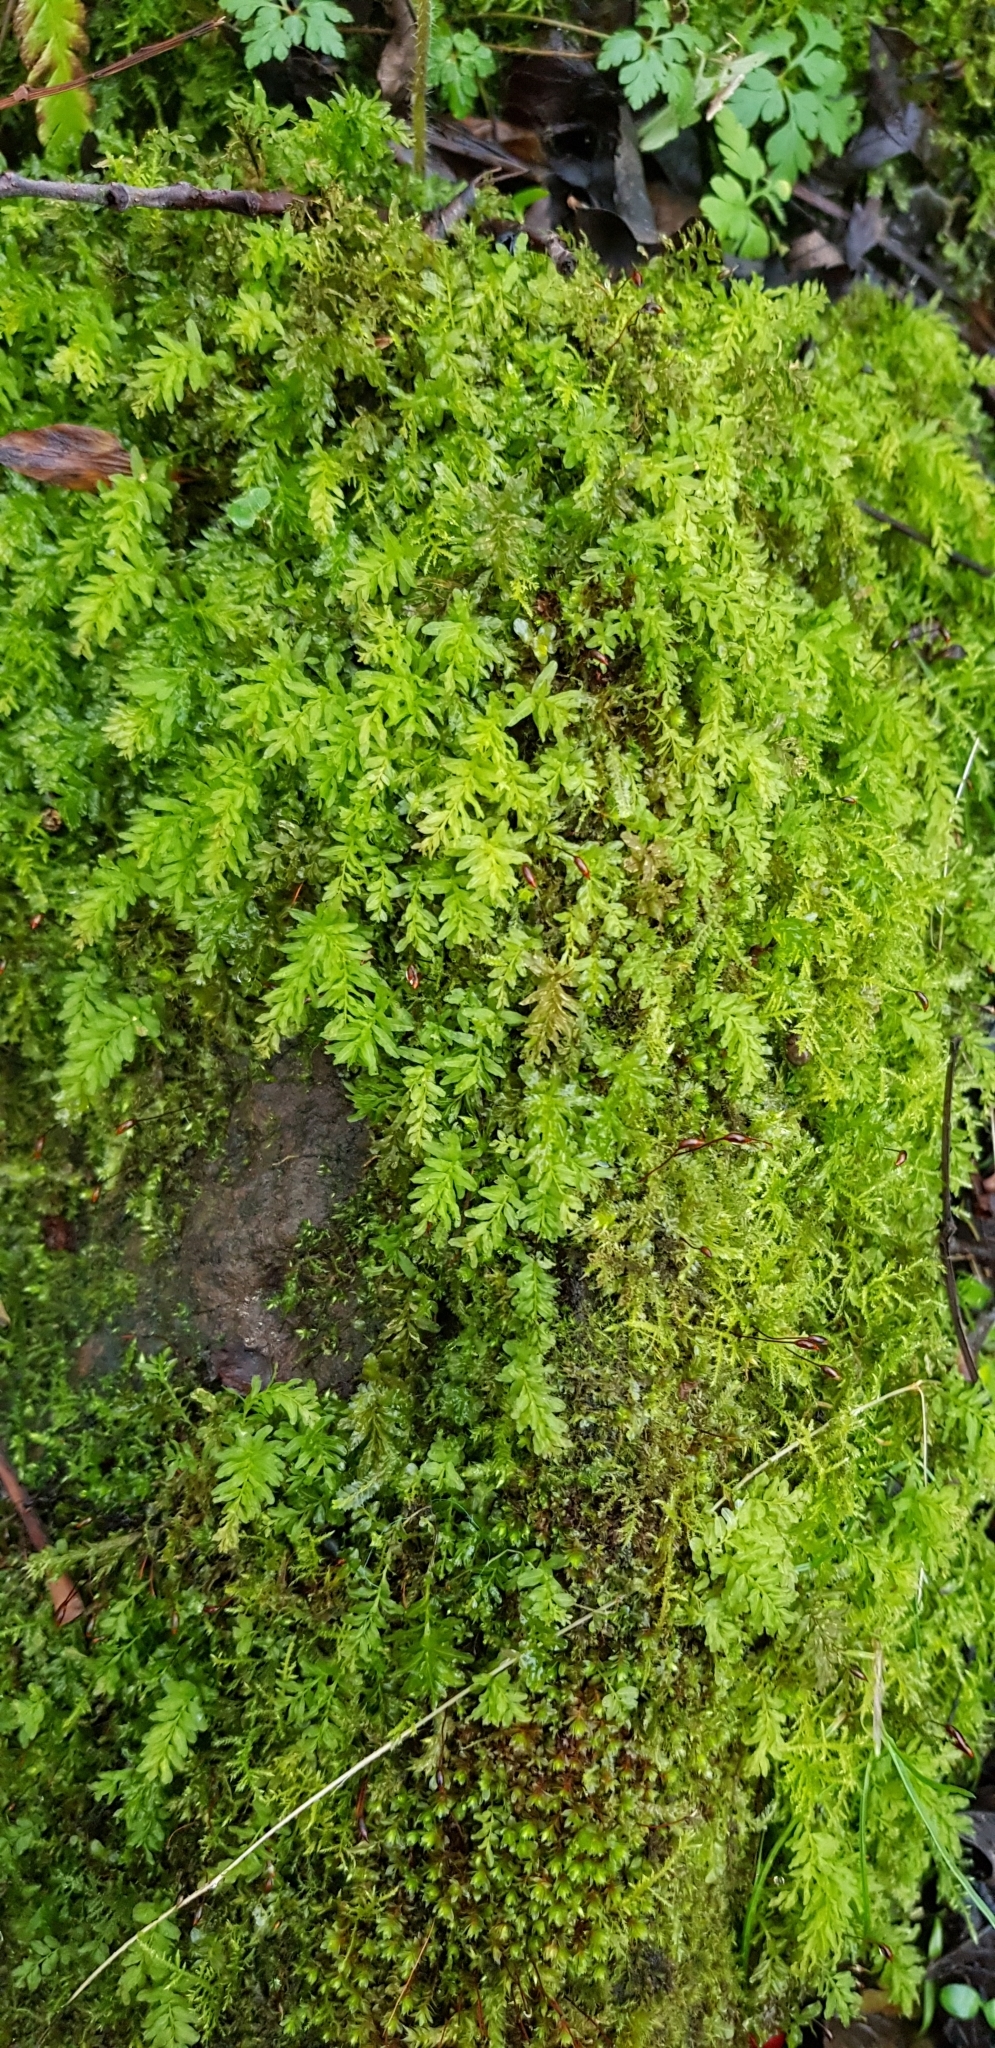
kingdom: Plantae
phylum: Bryophyta
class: Bryopsida
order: Bryales
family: Mniaceae
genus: Plagiomnium
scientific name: Plagiomnium undulatum
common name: Hart's-tongue thyme-moss
